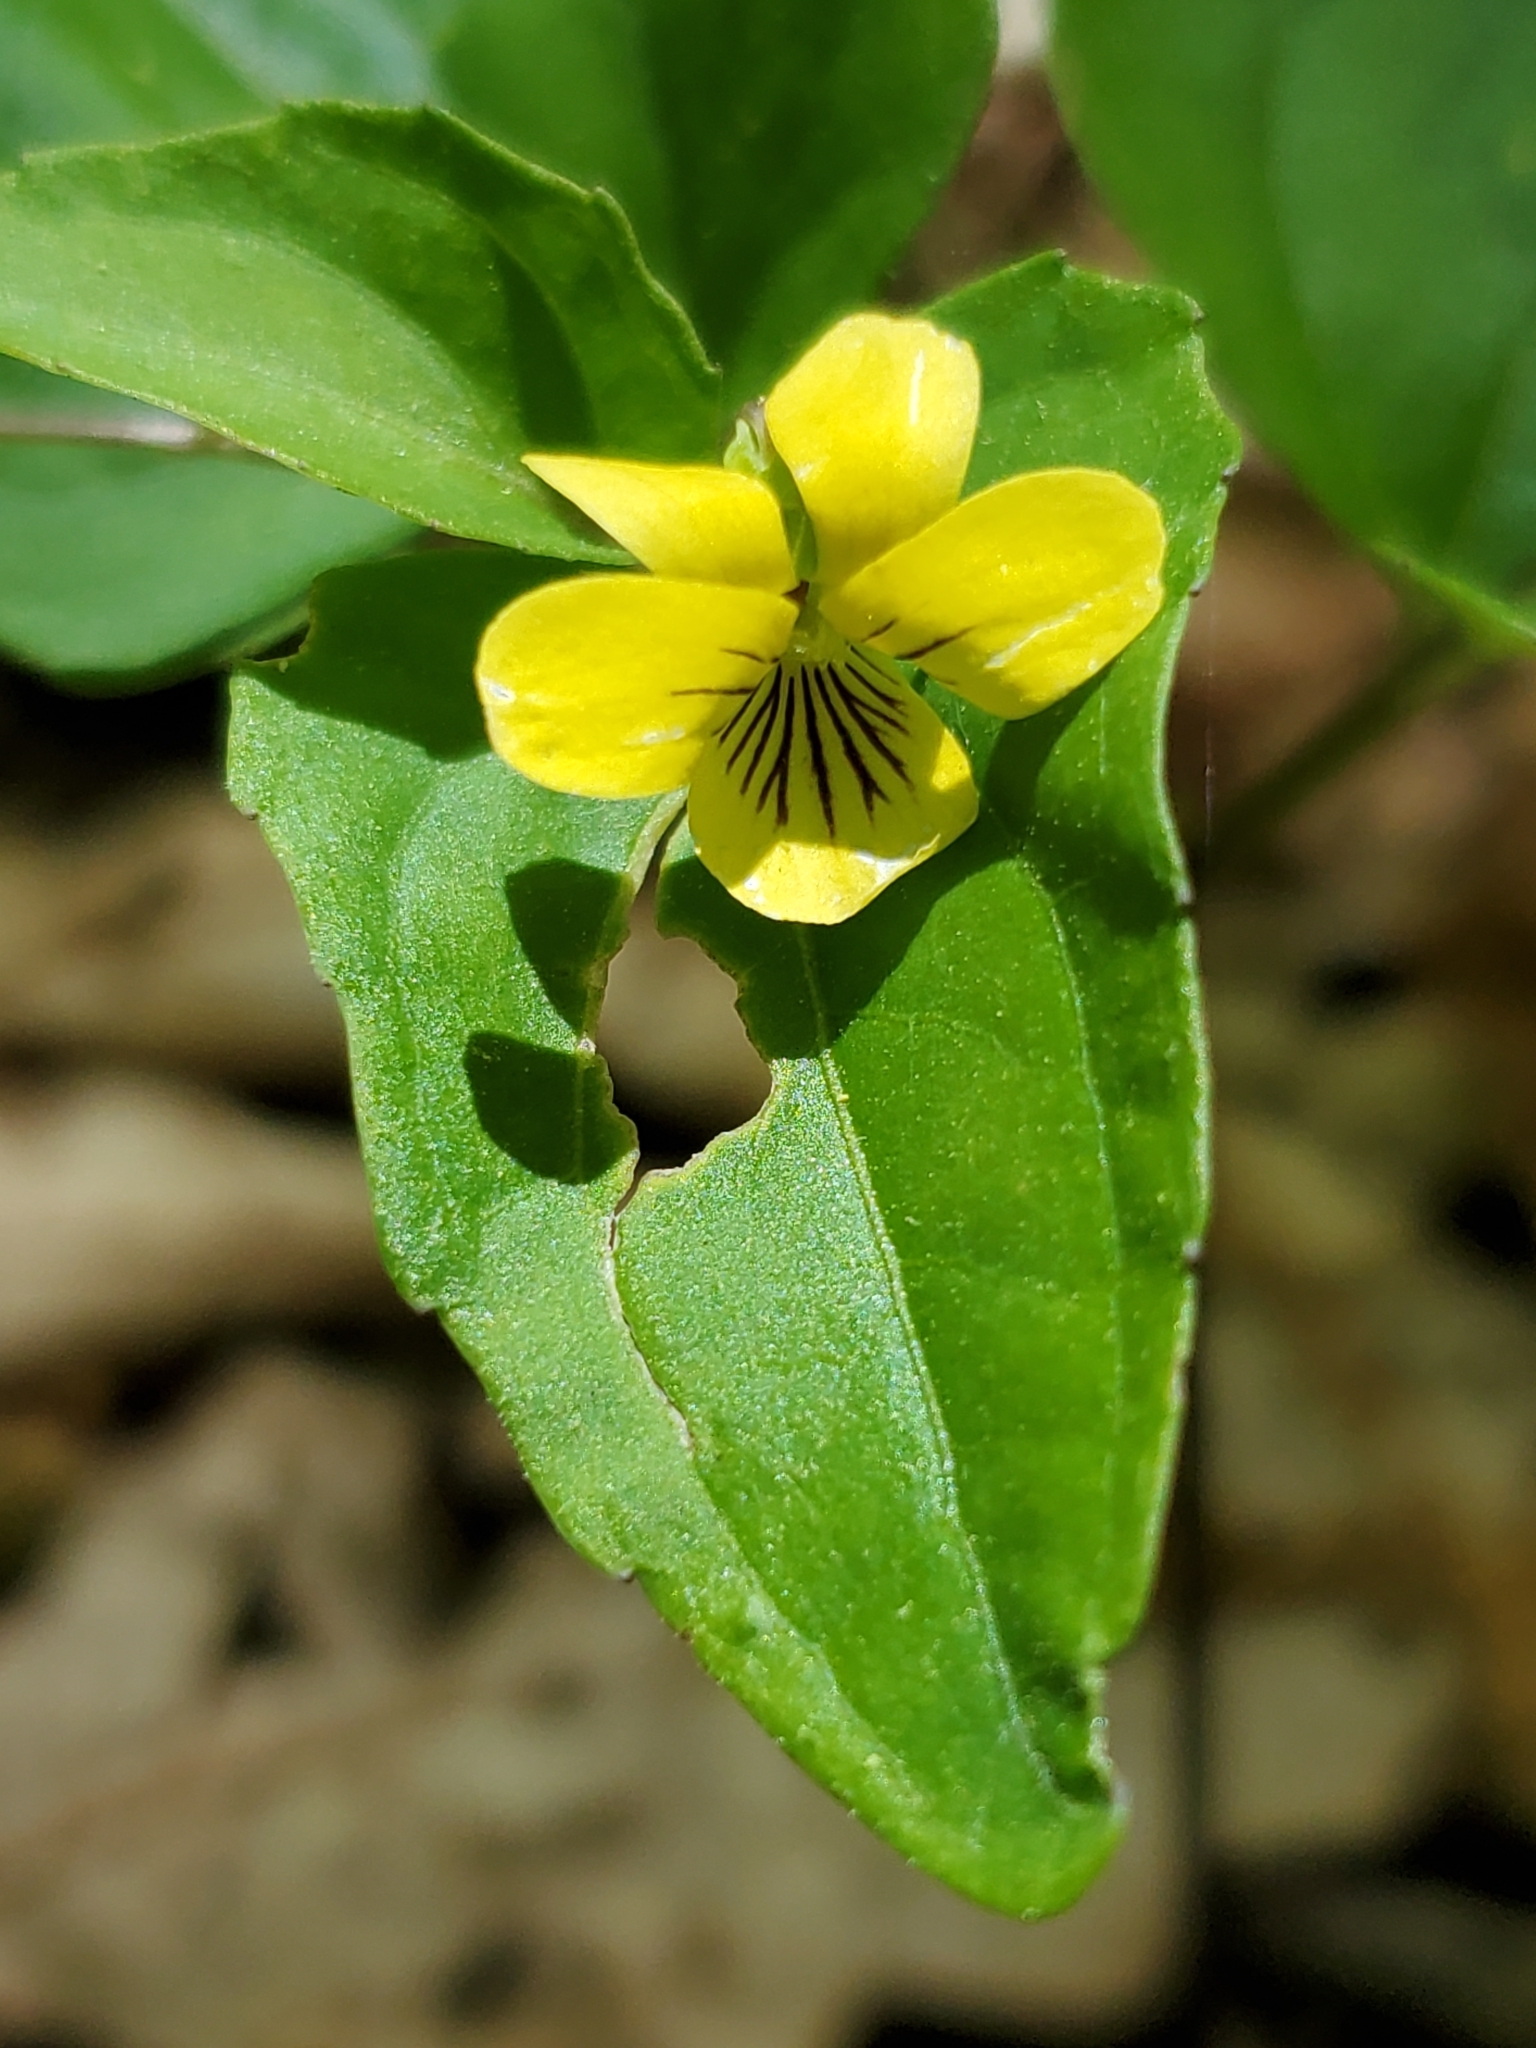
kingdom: Plantae
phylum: Tracheophyta
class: Magnoliopsida
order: Malpighiales
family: Violaceae
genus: Viola
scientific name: Viola hastata
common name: Spear-leaf violet
